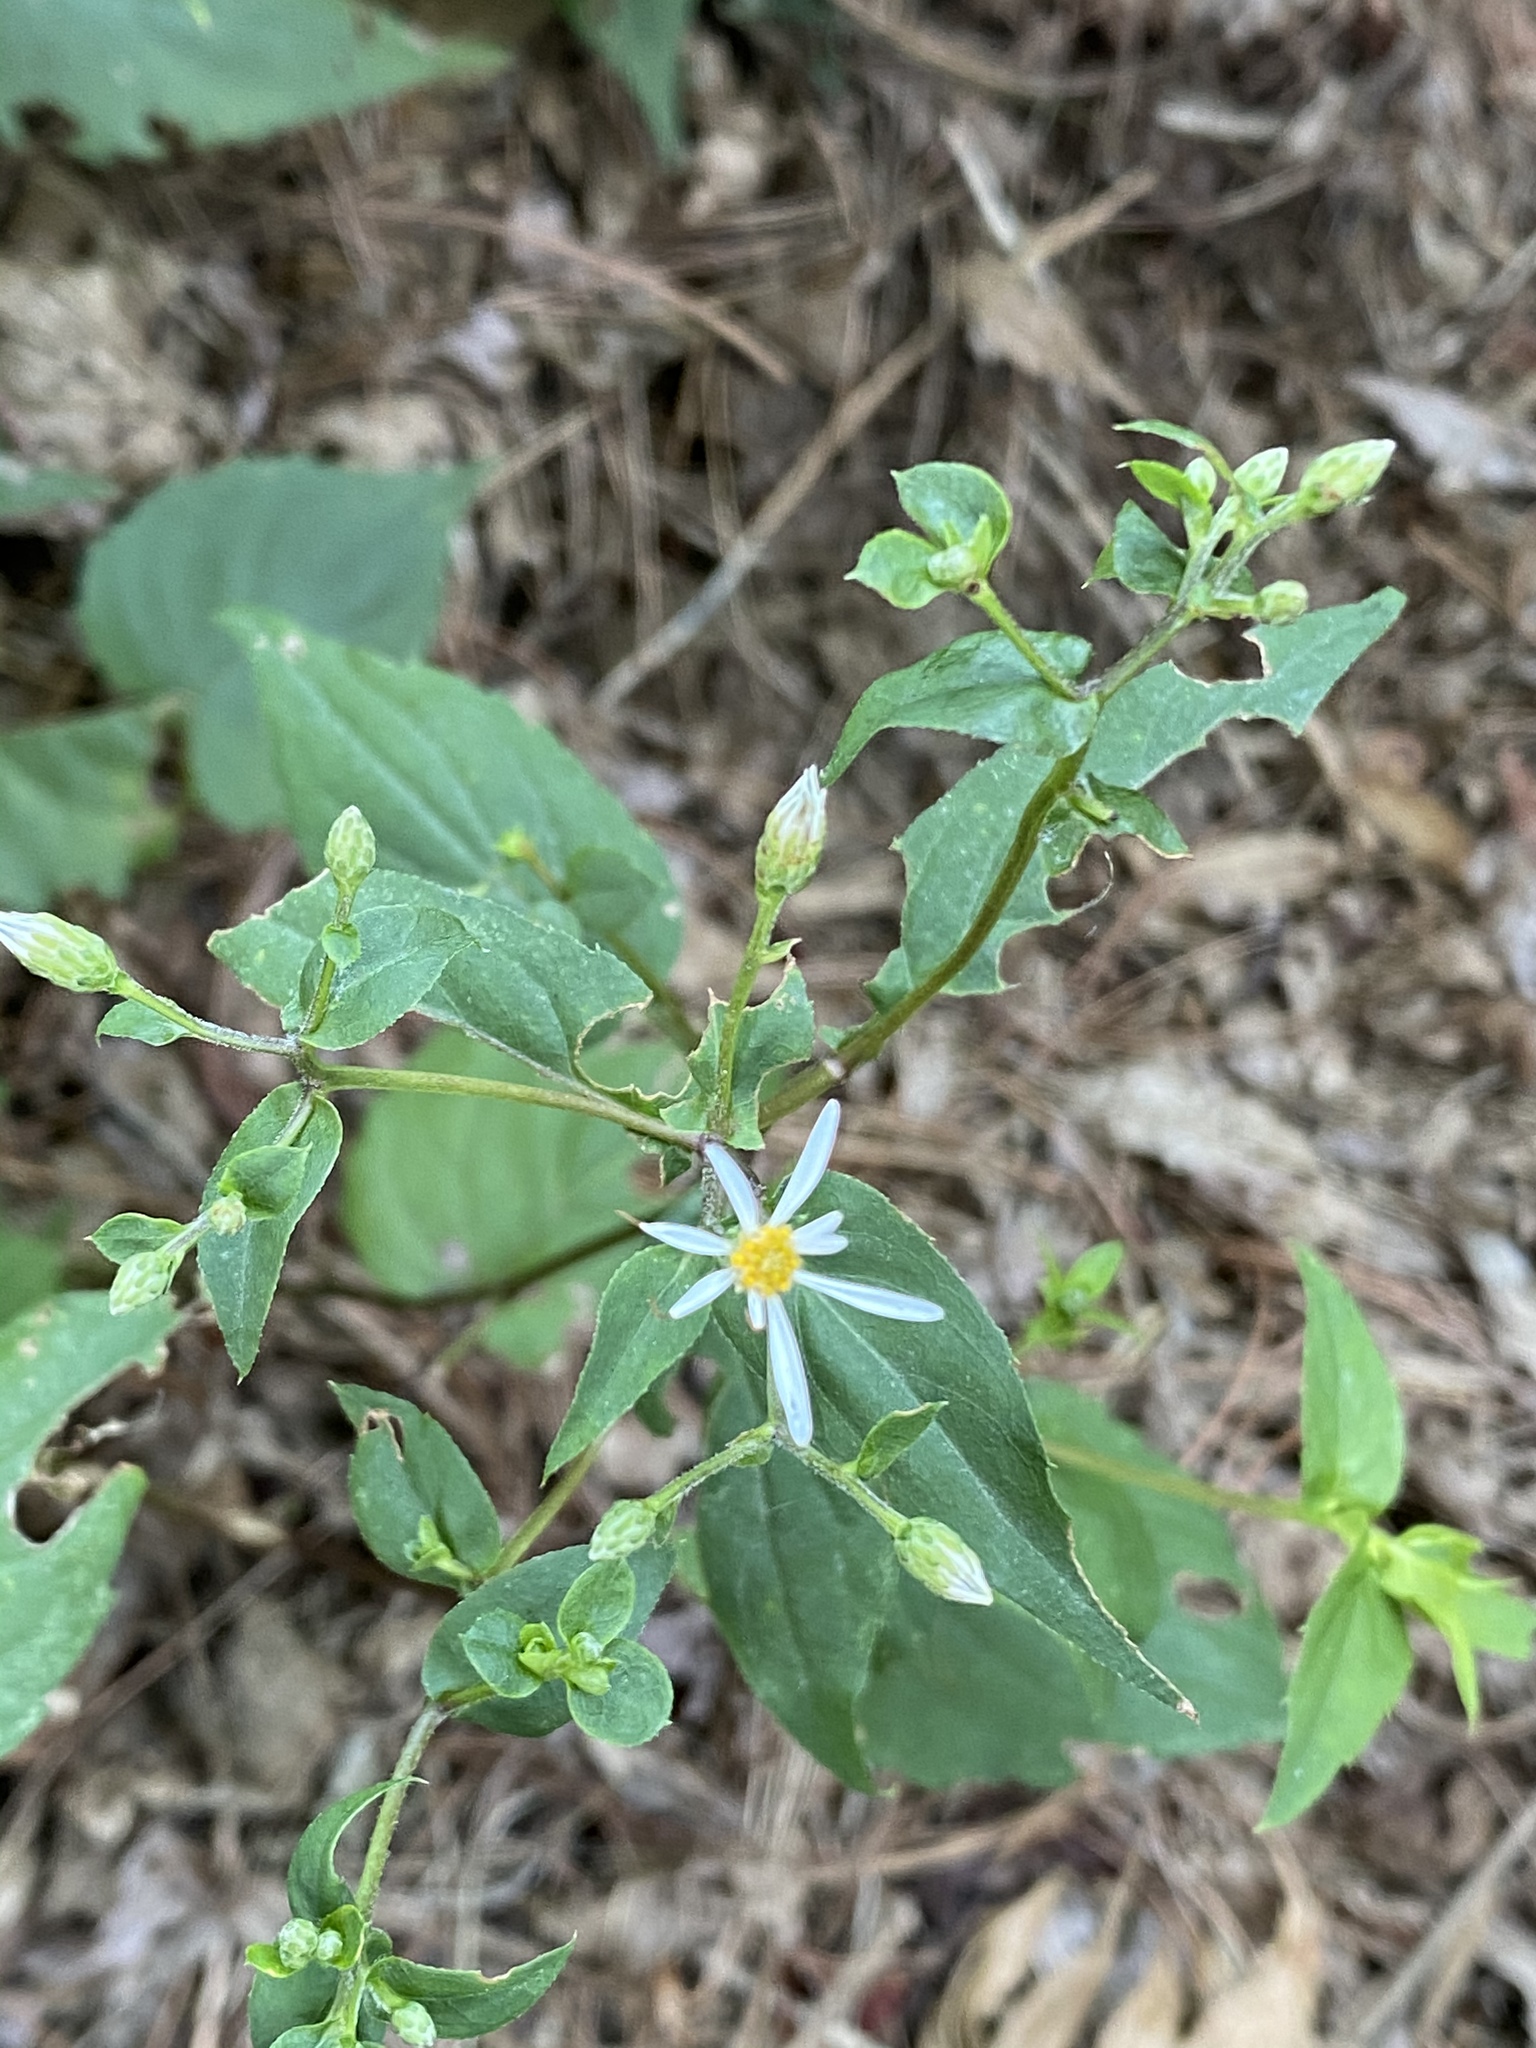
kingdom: Plantae
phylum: Tracheophyta
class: Magnoliopsida
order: Asterales
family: Asteraceae
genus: Eurybia
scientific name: Eurybia divaricata
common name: White wood aster
